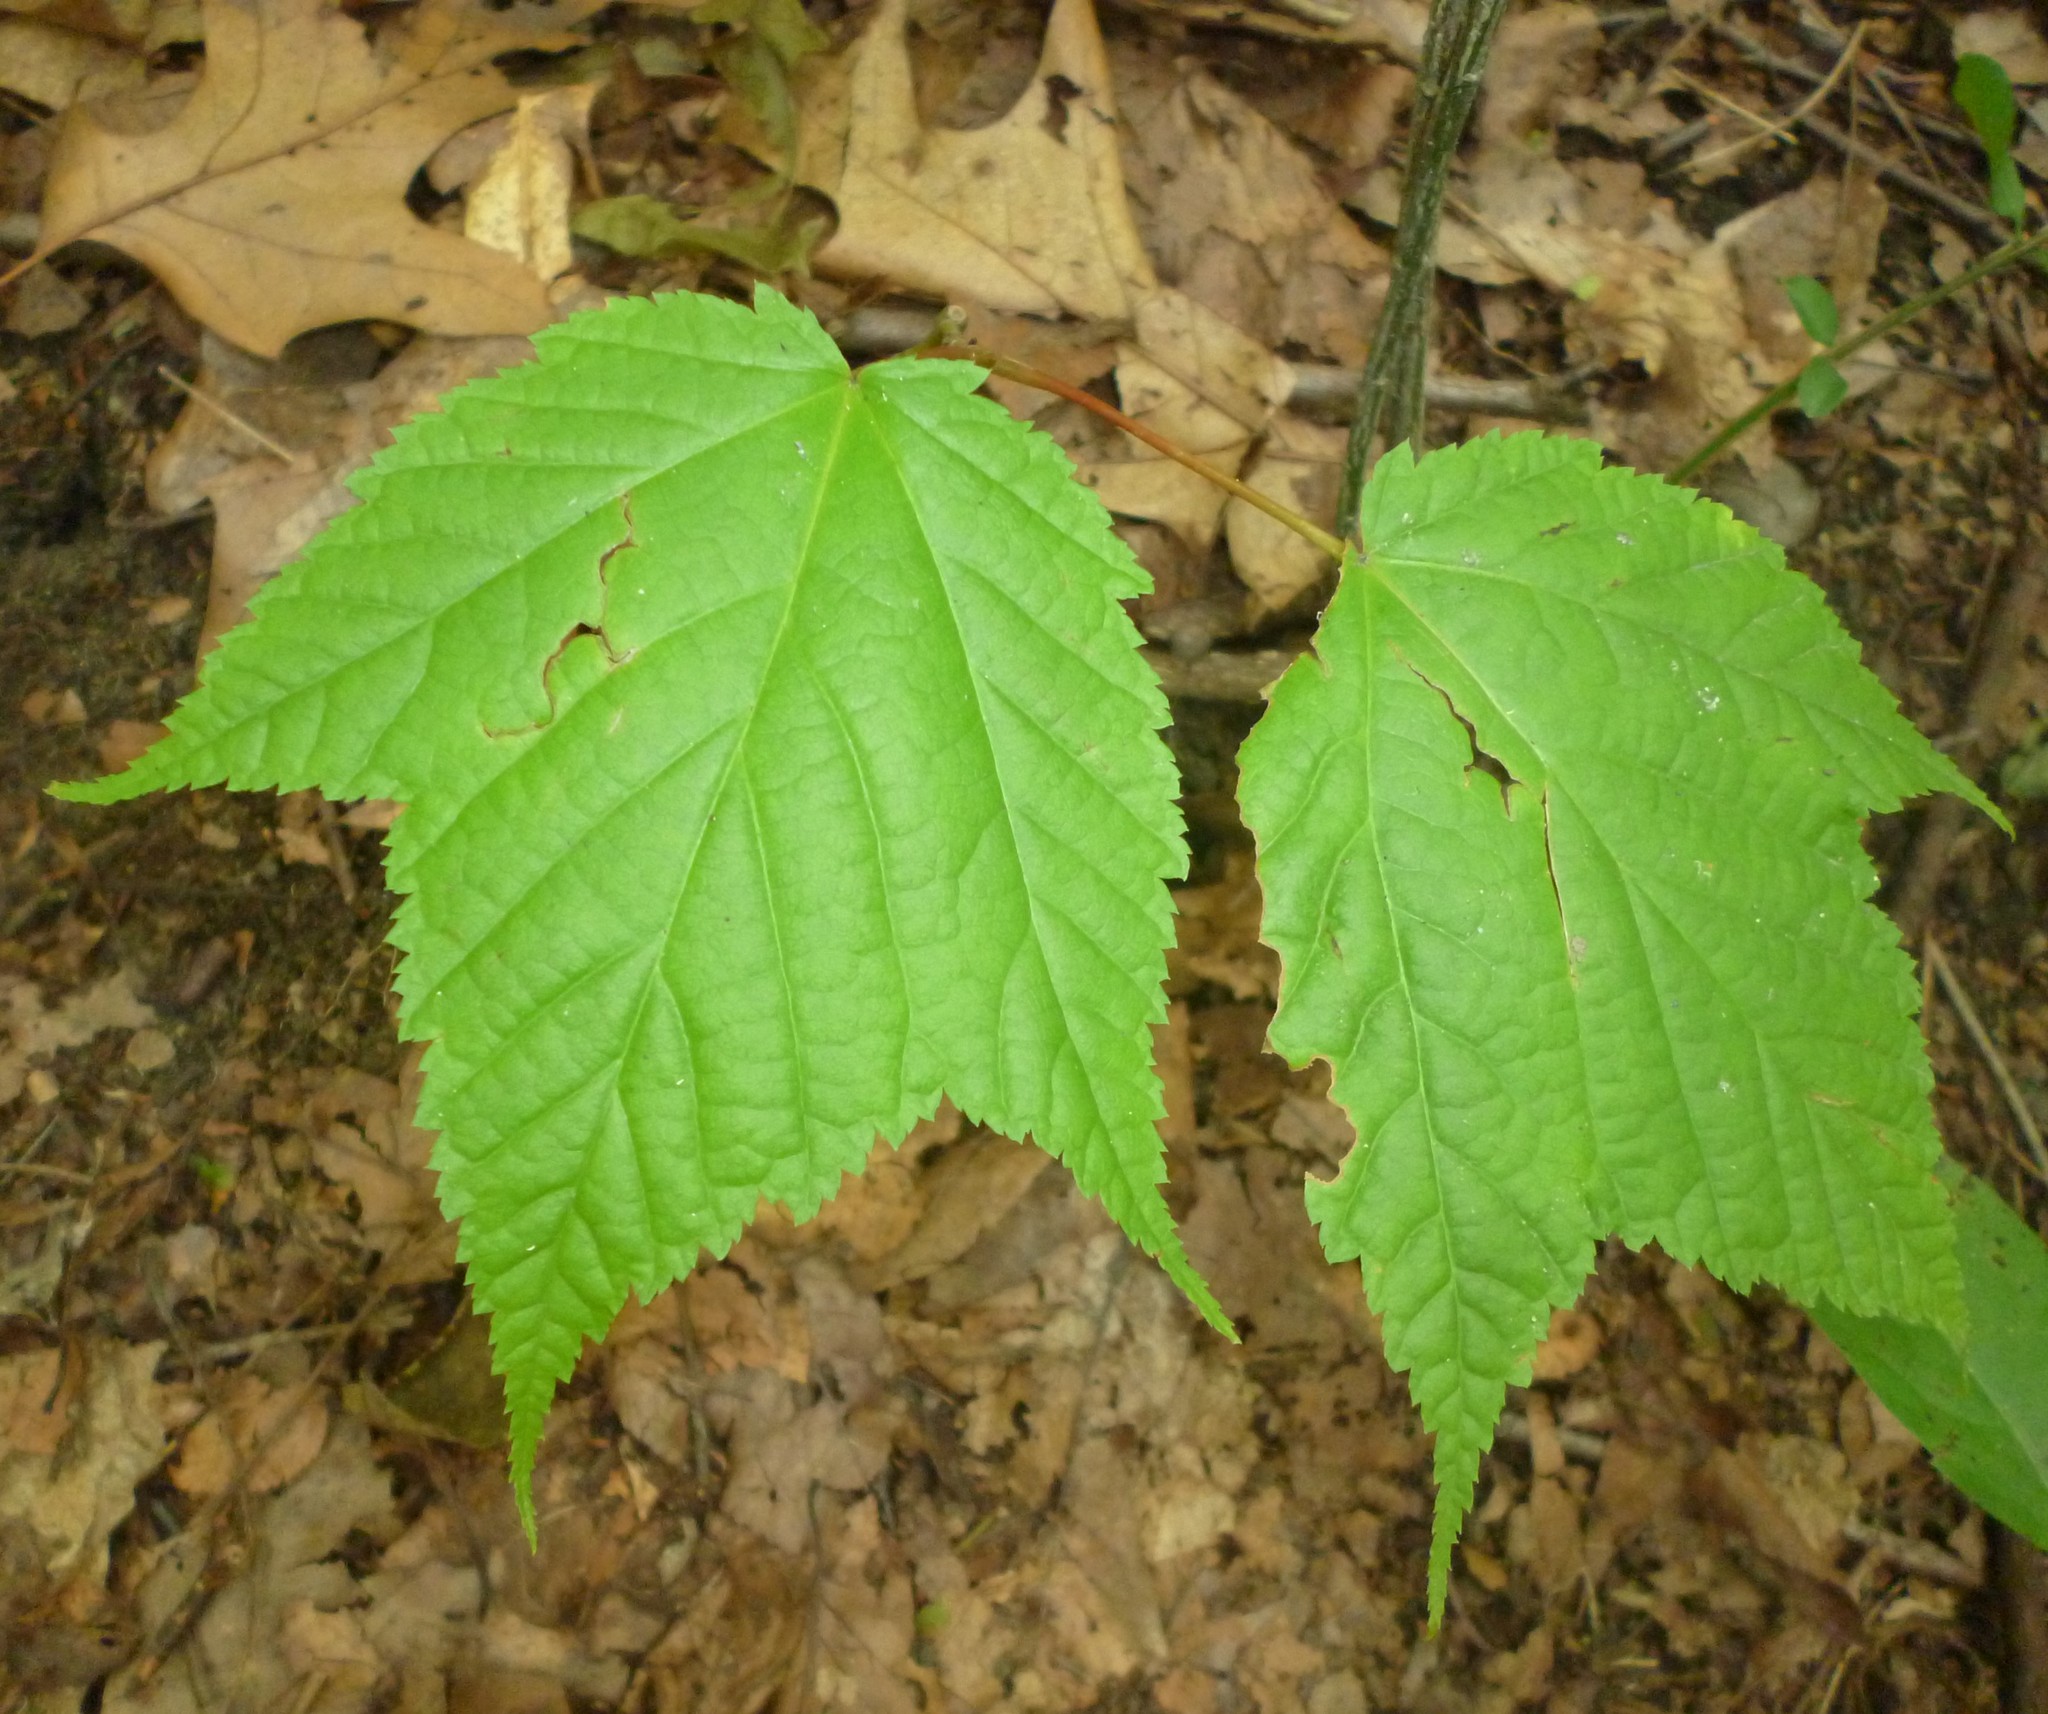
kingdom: Plantae
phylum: Tracheophyta
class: Magnoliopsida
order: Sapindales
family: Sapindaceae
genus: Acer
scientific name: Acer pensylvanicum
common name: Moosewood
